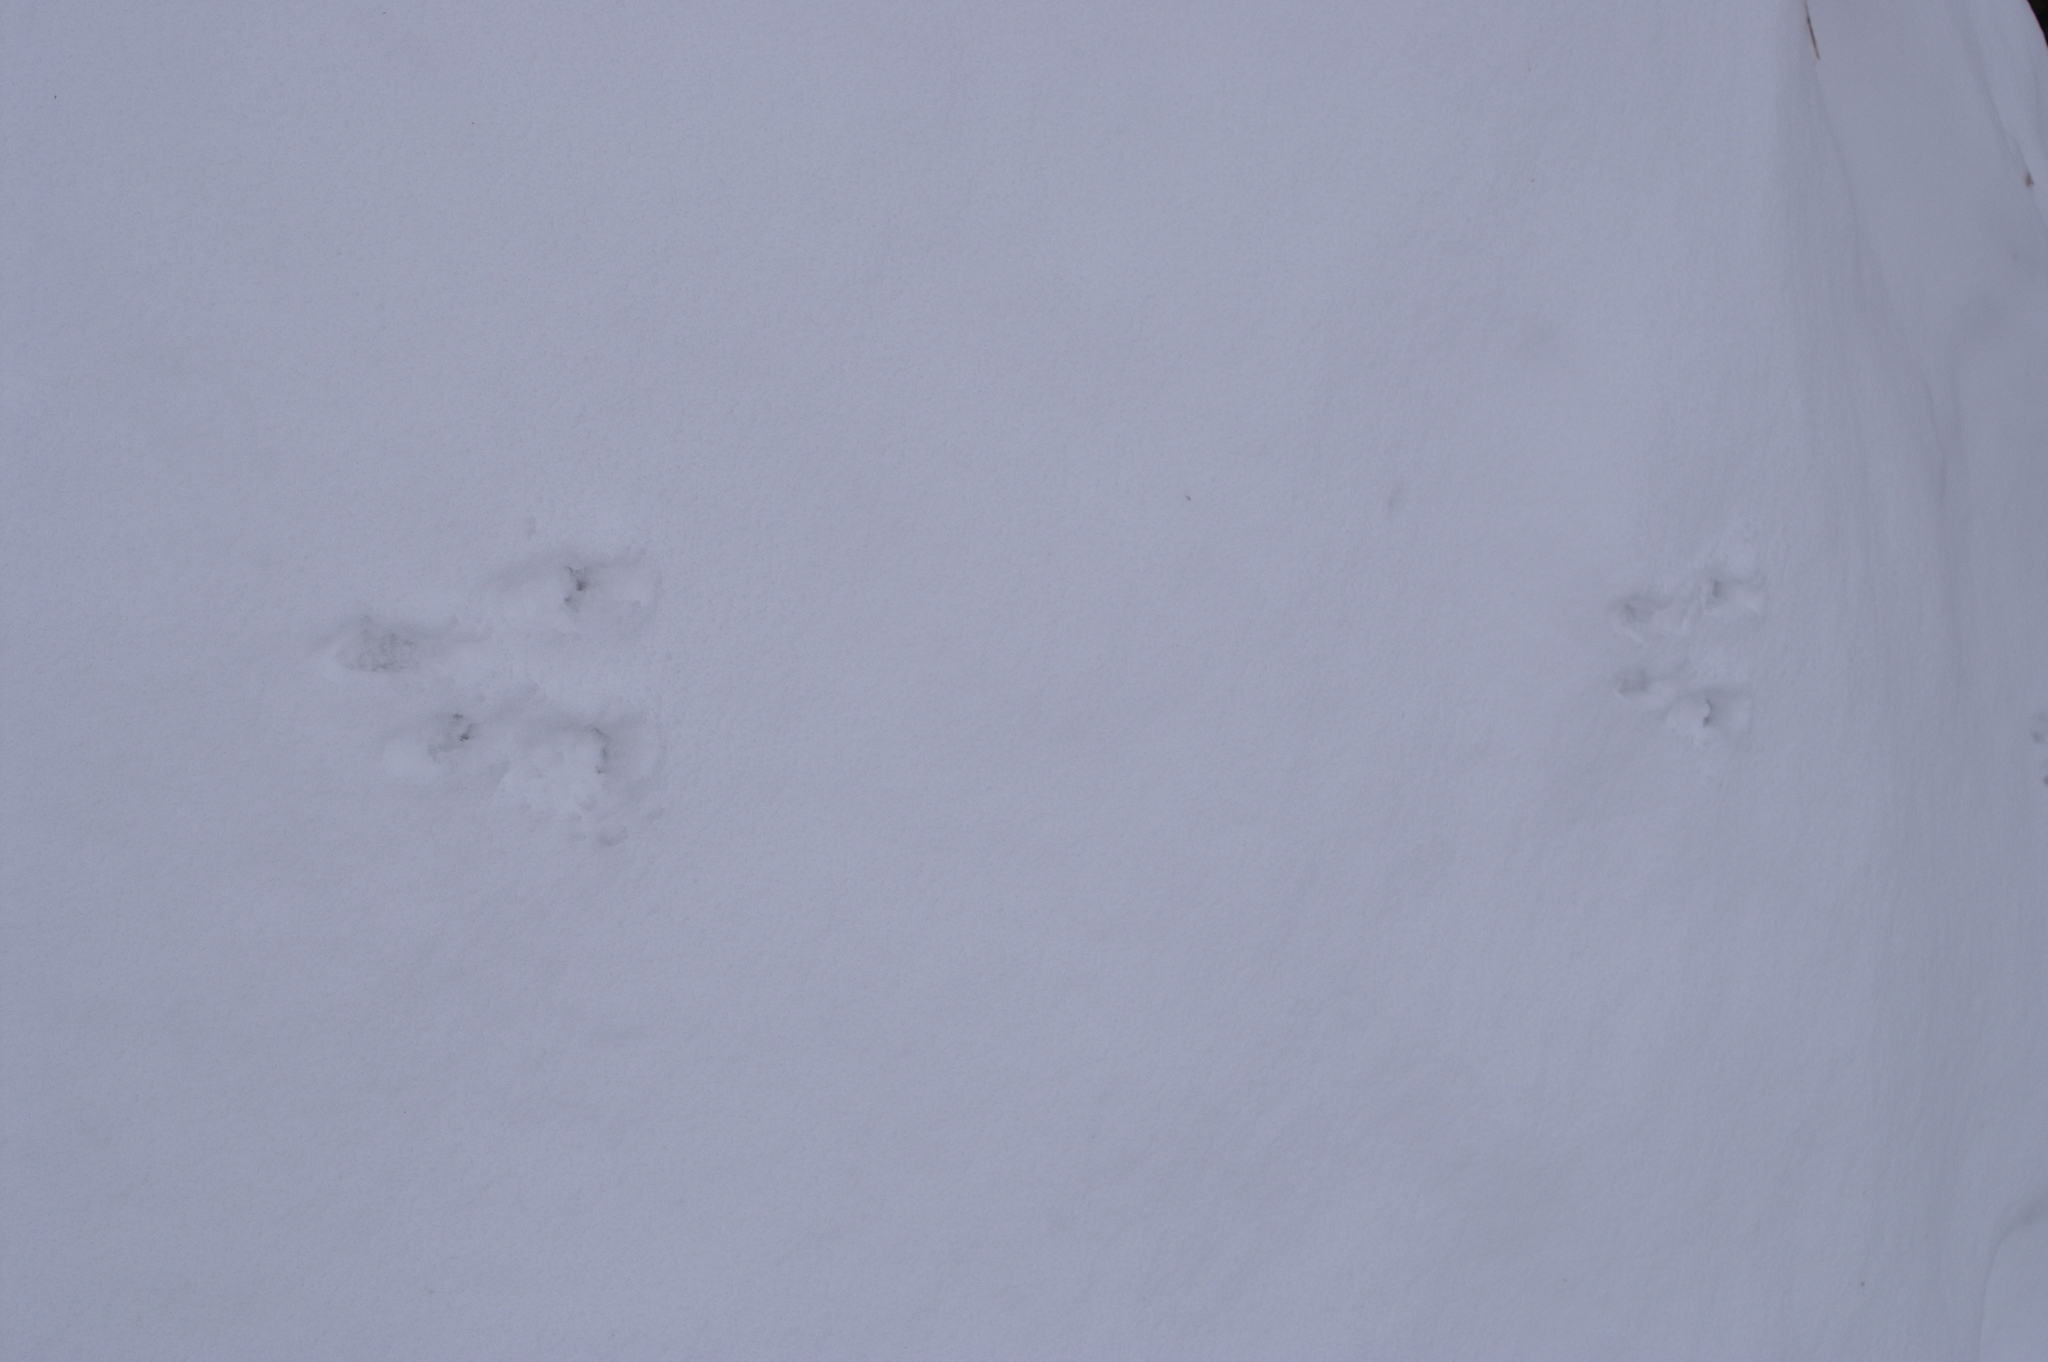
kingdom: Animalia
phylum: Chordata
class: Mammalia
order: Rodentia
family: Sciuridae
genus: Sciurus
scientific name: Sciurus vulgaris
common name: Eurasian red squirrel
